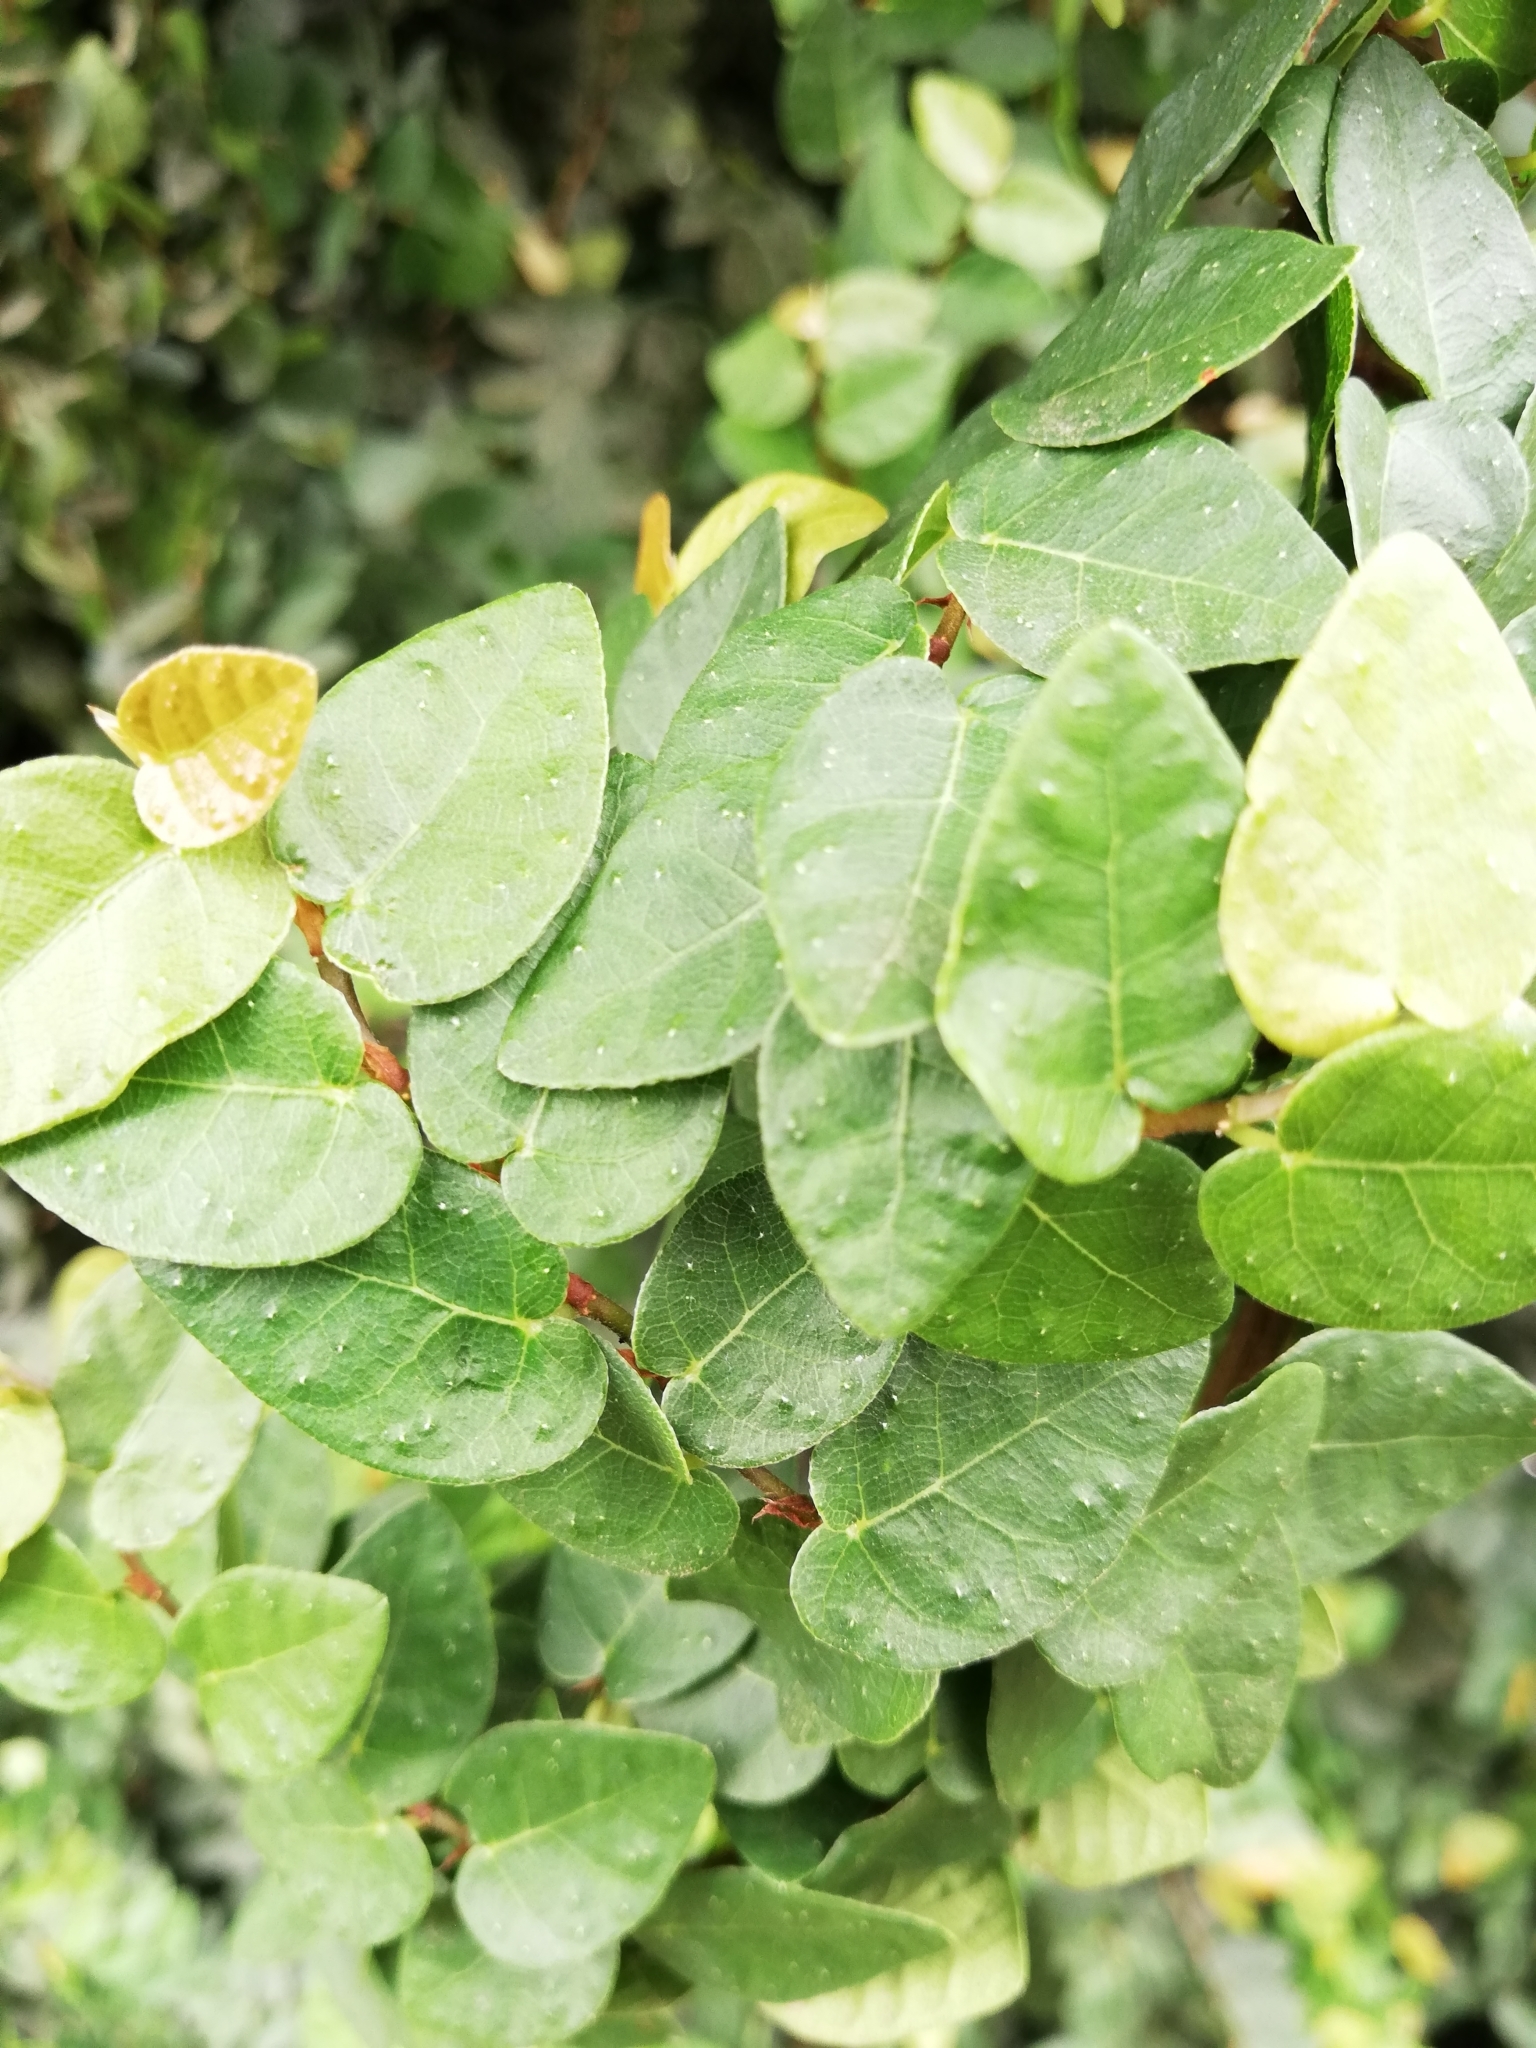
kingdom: Plantae
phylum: Tracheophyta
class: Magnoliopsida
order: Rosales
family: Moraceae
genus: Ficus
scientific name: Ficus pumila
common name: Climbingfig
